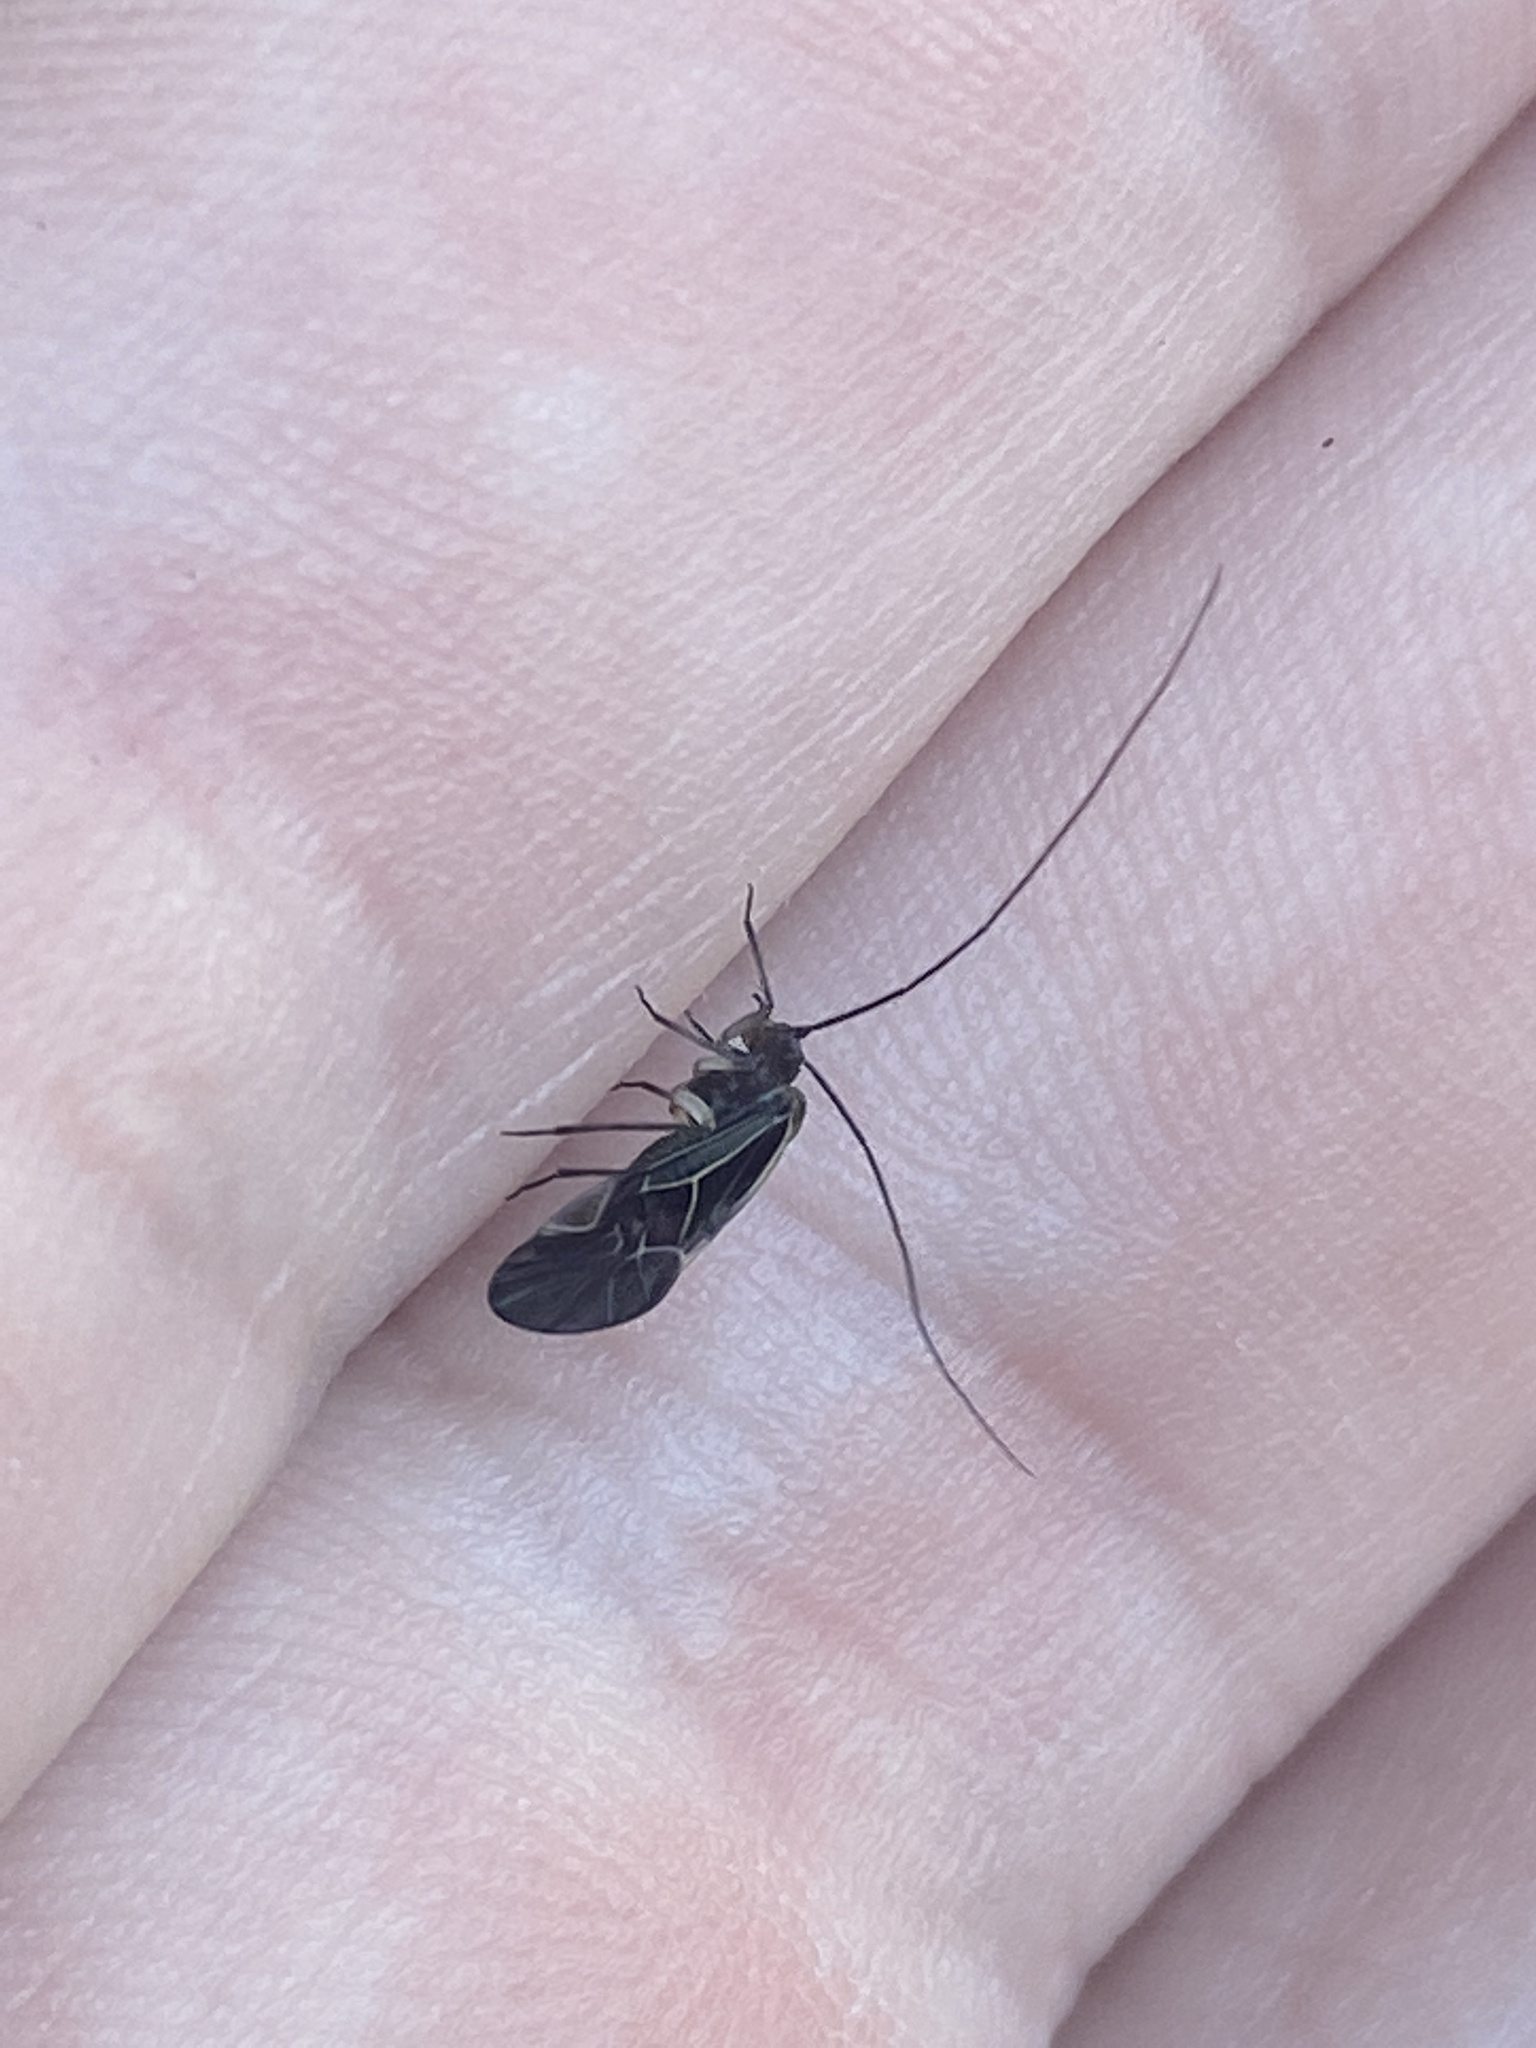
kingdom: Animalia
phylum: Arthropoda
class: Insecta
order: Psocodea
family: Psocidae
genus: Cerastipsocus
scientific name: Cerastipsocus venosus
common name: Tree cattle
